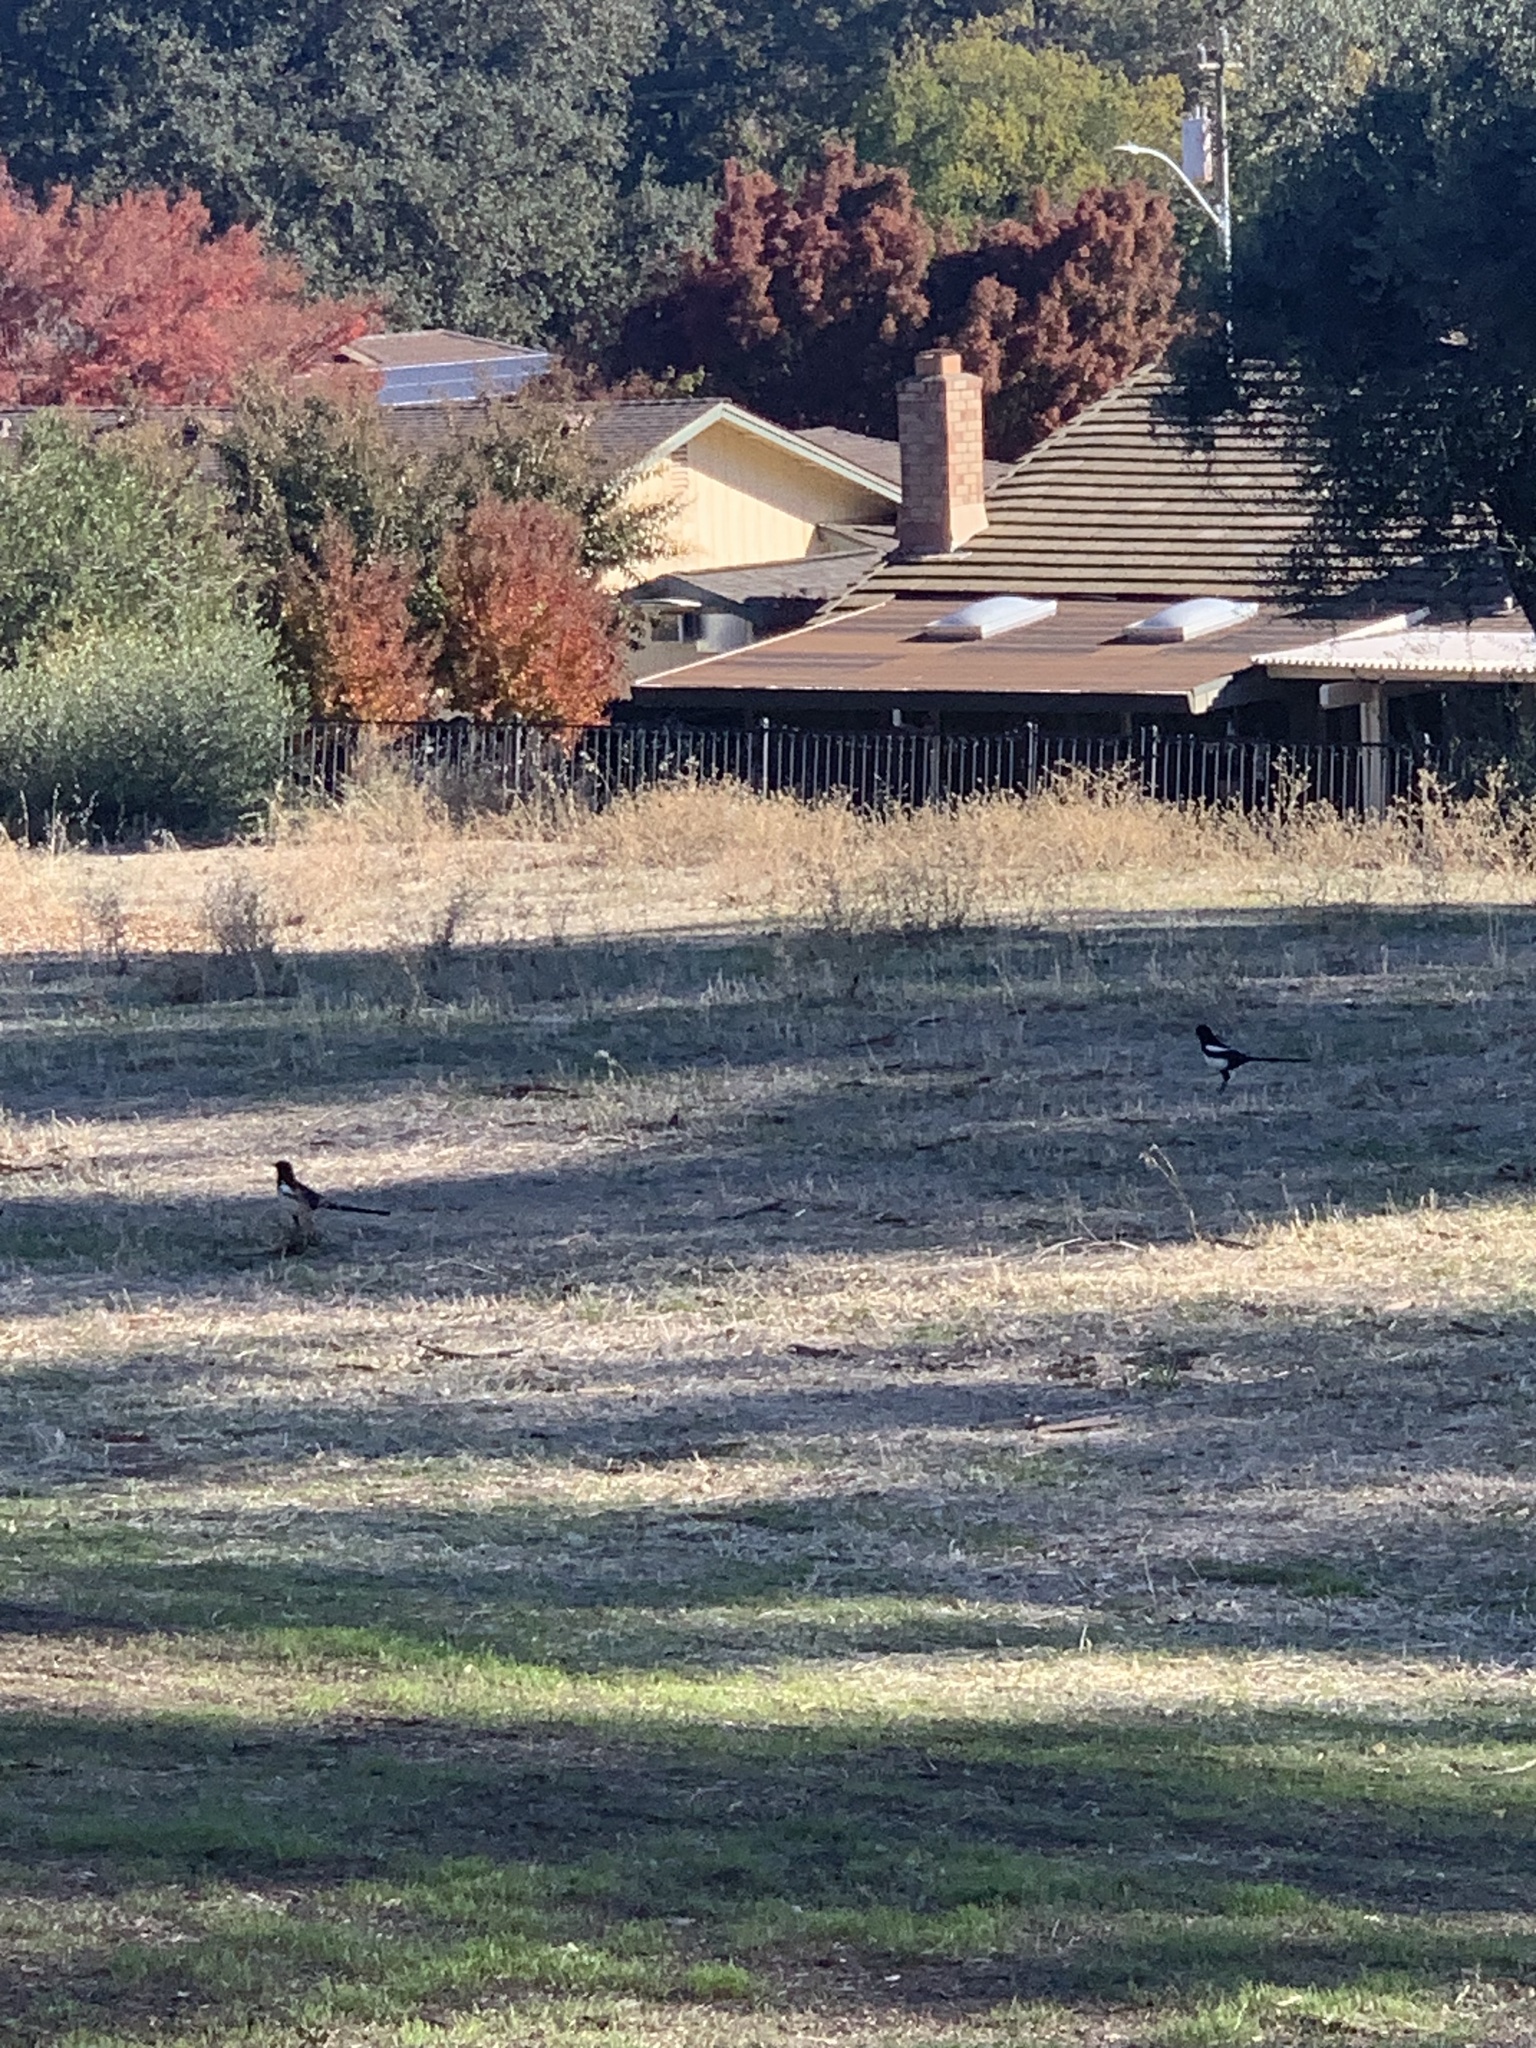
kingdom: Animalia
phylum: Chordata
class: Aves
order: Passeriformes
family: Corvidae
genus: Pica
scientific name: Pica nuttalli
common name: Yellow-billed magpie
